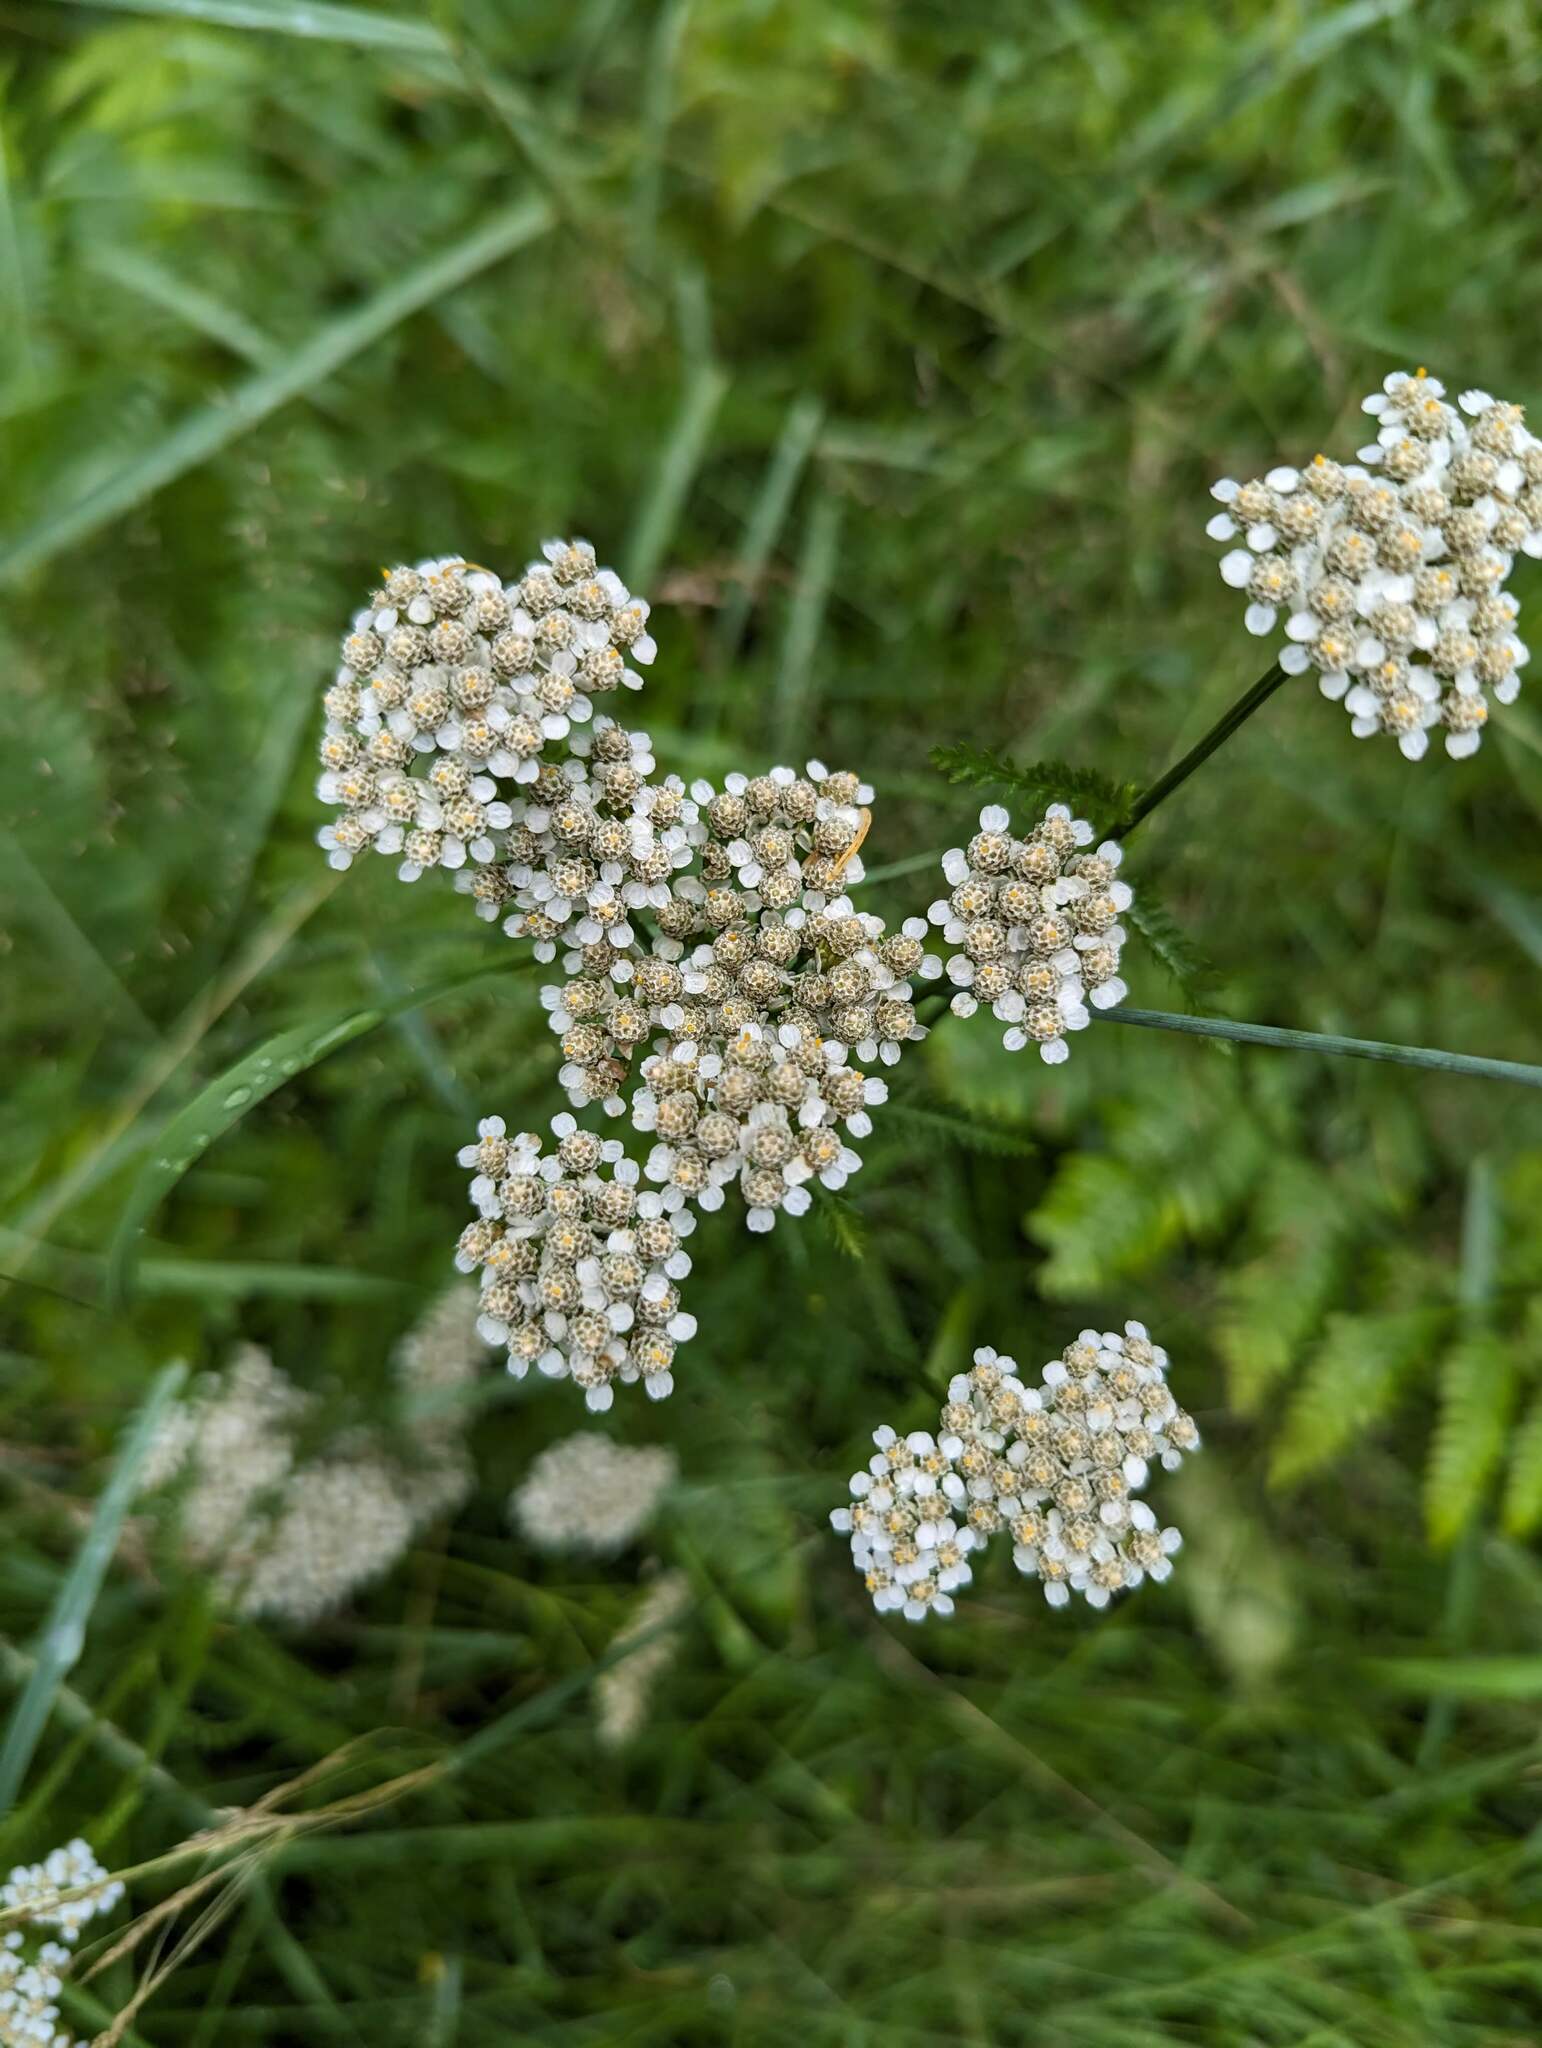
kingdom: Plantae
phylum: Tracheophyta
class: Magnoliopsida
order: Asterales
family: Asteraceae
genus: Achillea
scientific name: Achillea millefolium
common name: Yarrow
